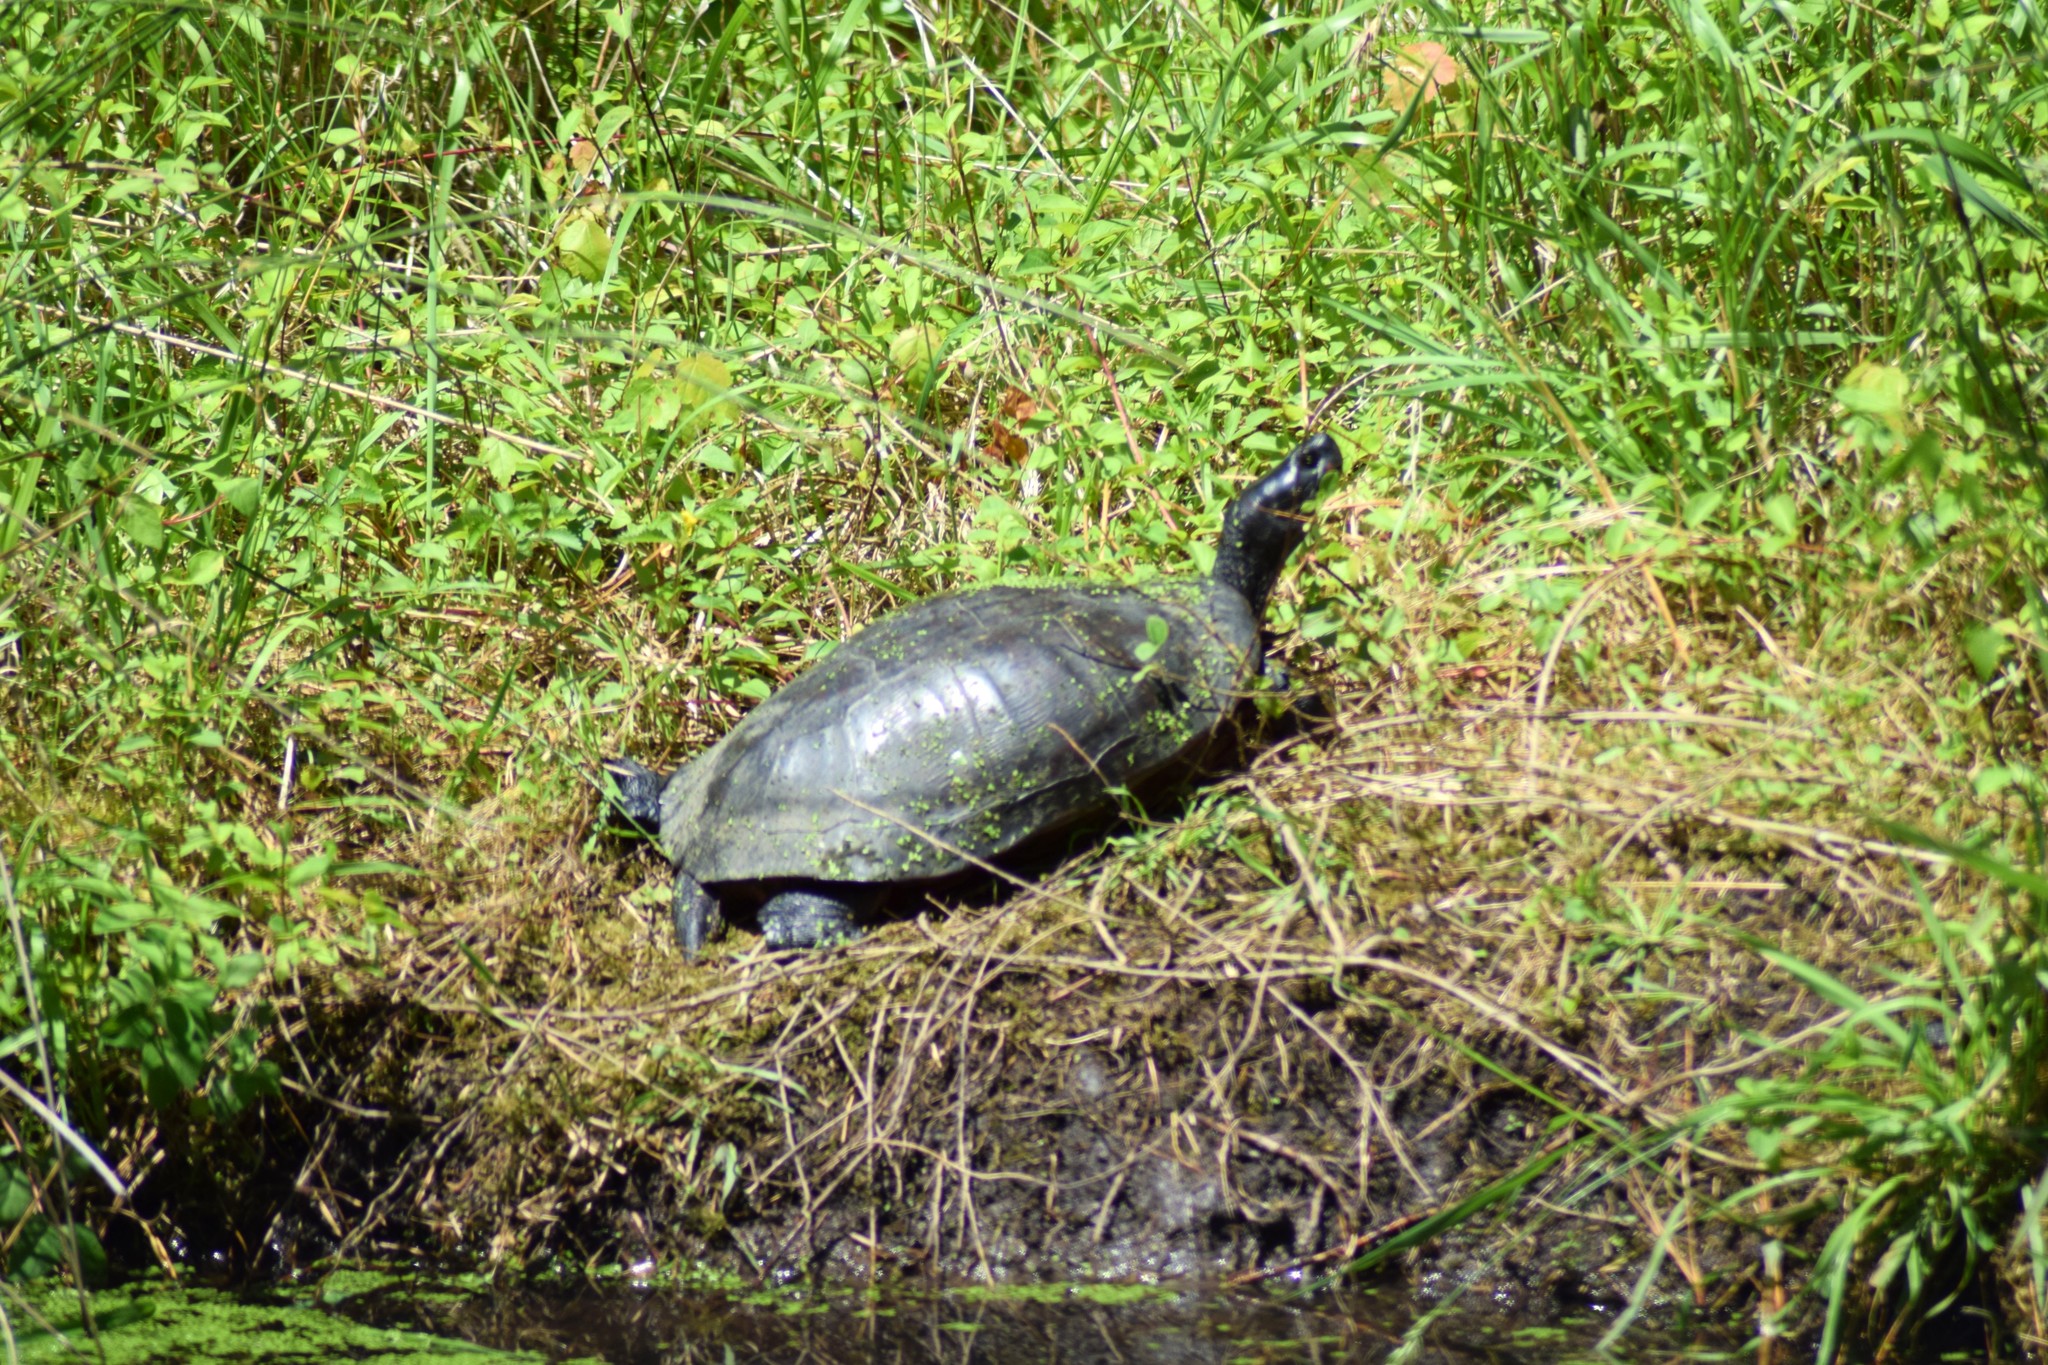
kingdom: Animalia
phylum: Chordata
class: Testudines
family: Emydidae
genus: Pseudemys
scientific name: Pseudemys rubriventris
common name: American red-bellied turtle
